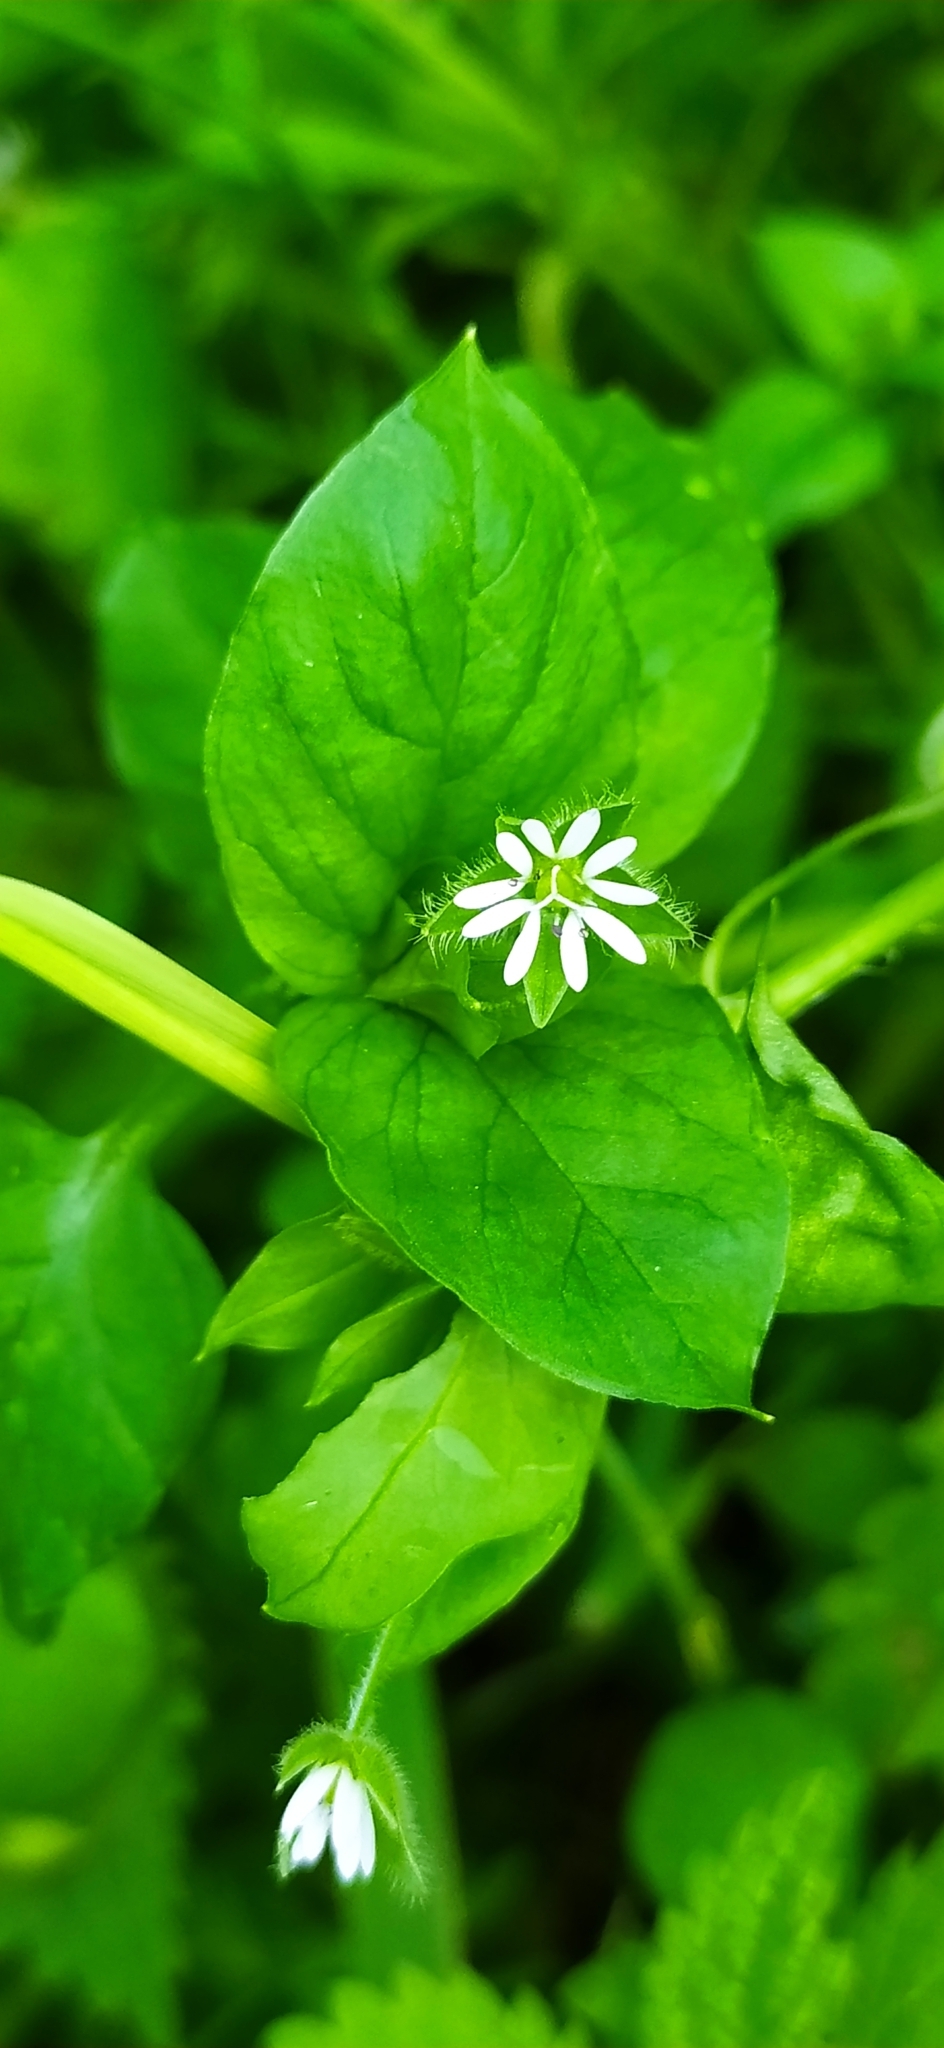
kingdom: Plantae
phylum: Tracheophyta
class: Magnoliopsida
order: Caryophyllales
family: Caryophyllaceae
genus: Stellaria
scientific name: Stellaria media
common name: Common chickweed
